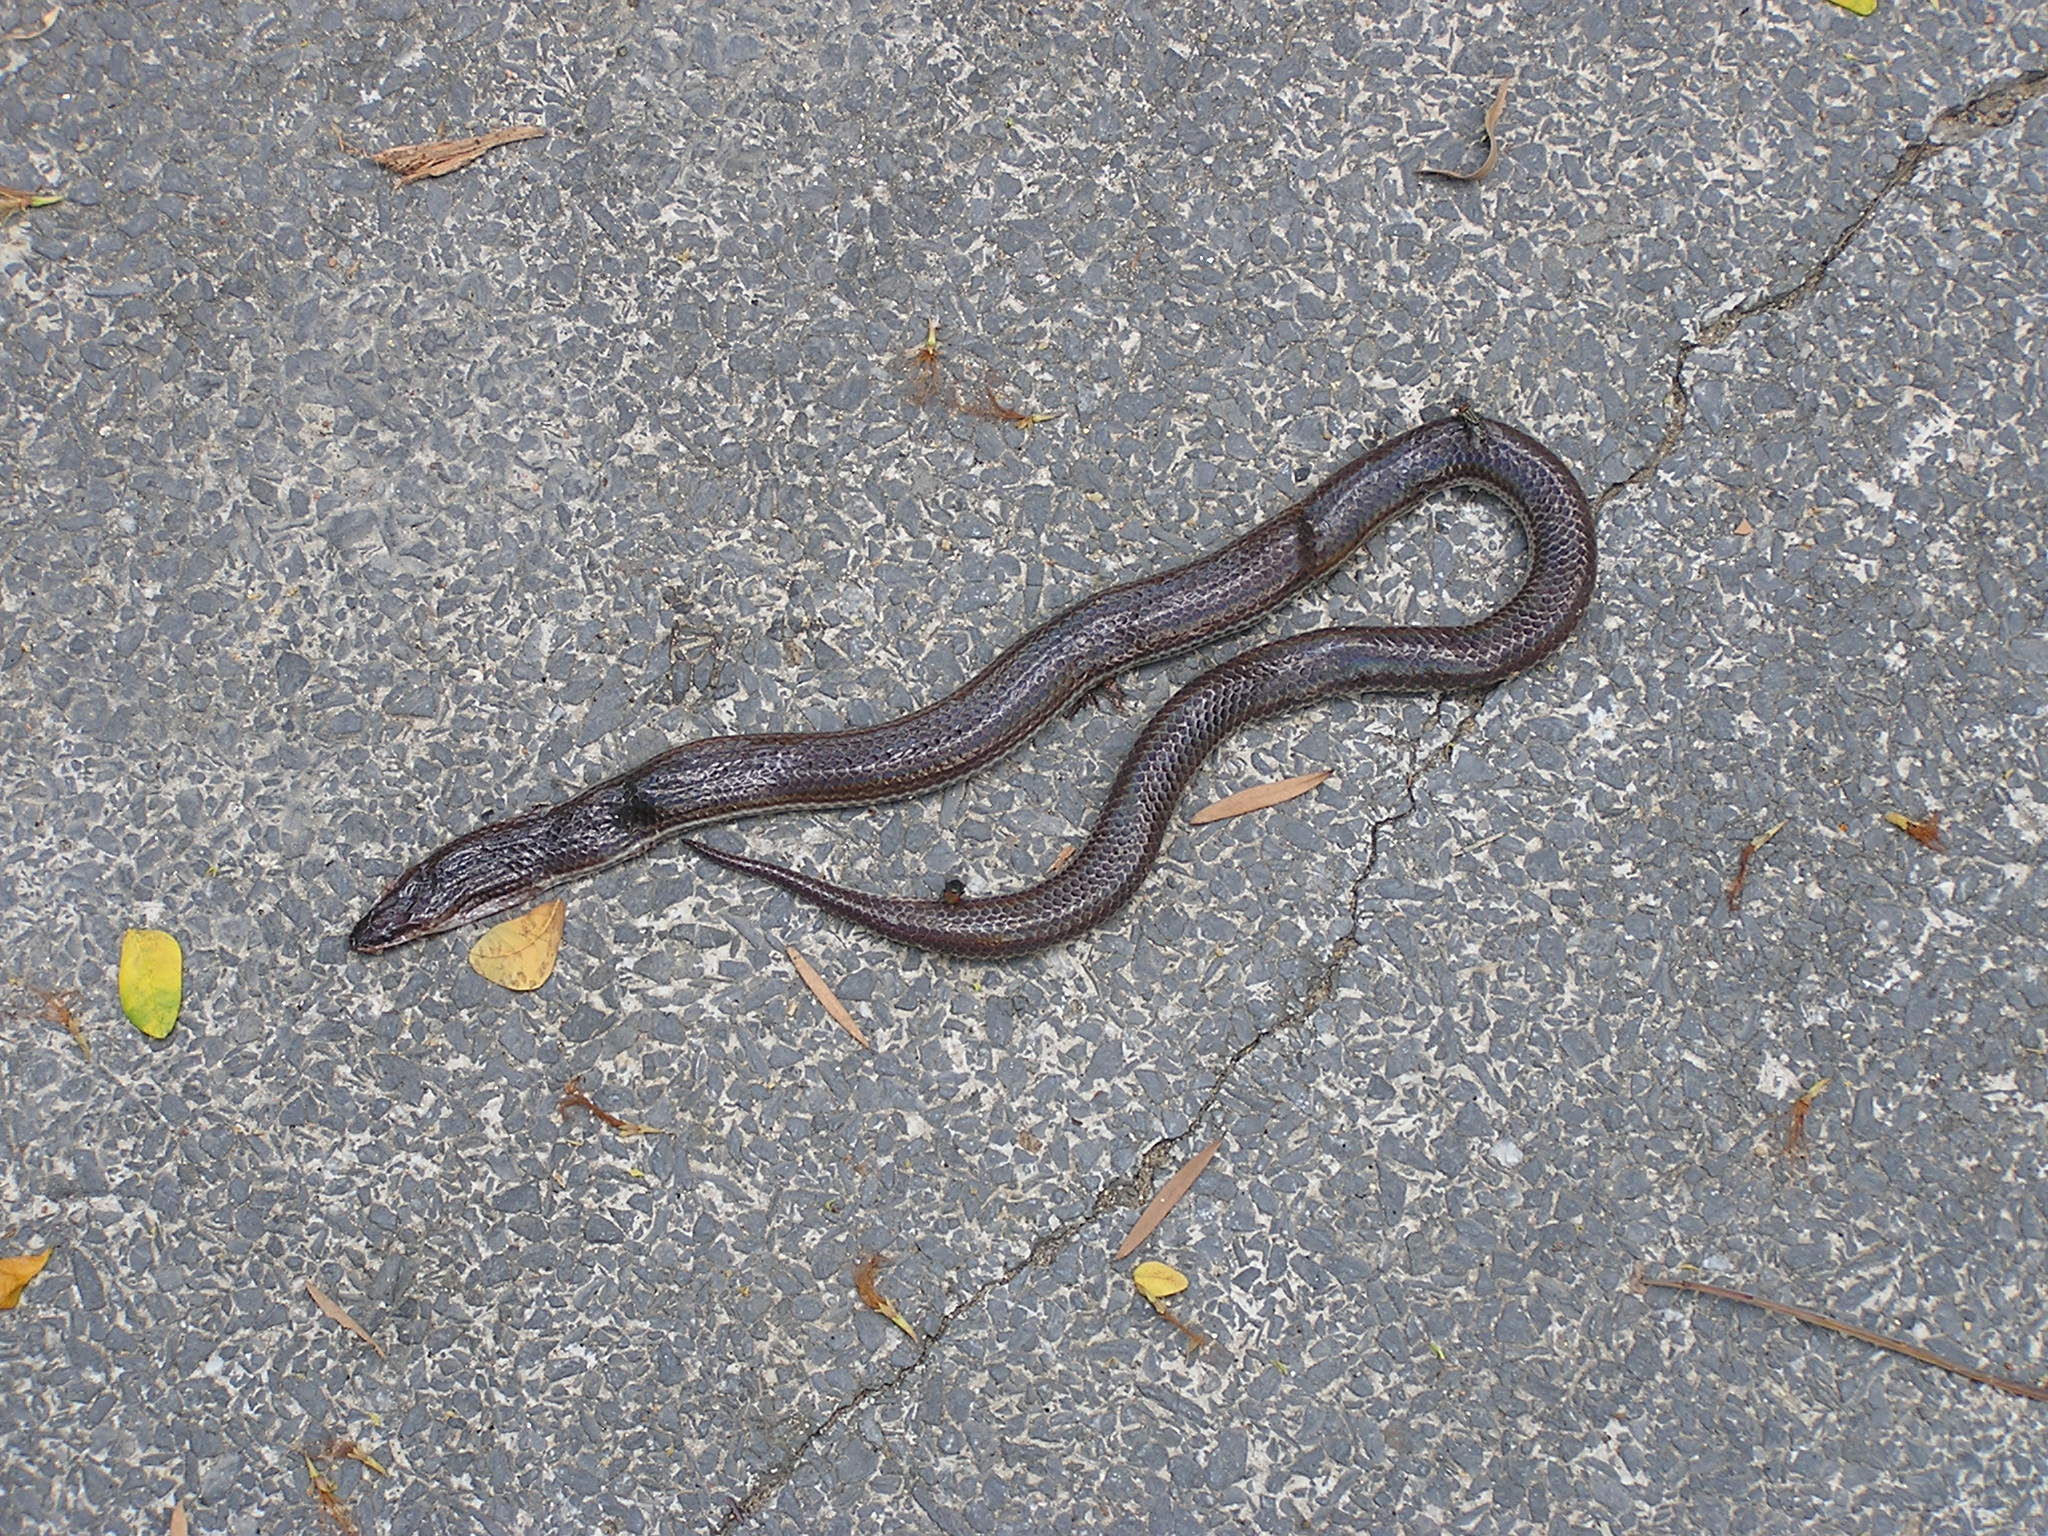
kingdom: Animalia
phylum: Chordata
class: Squamata
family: Xenopeltidae
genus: Xenopeltis
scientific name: Xenopeltis unicolor
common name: Sunbeam snake
